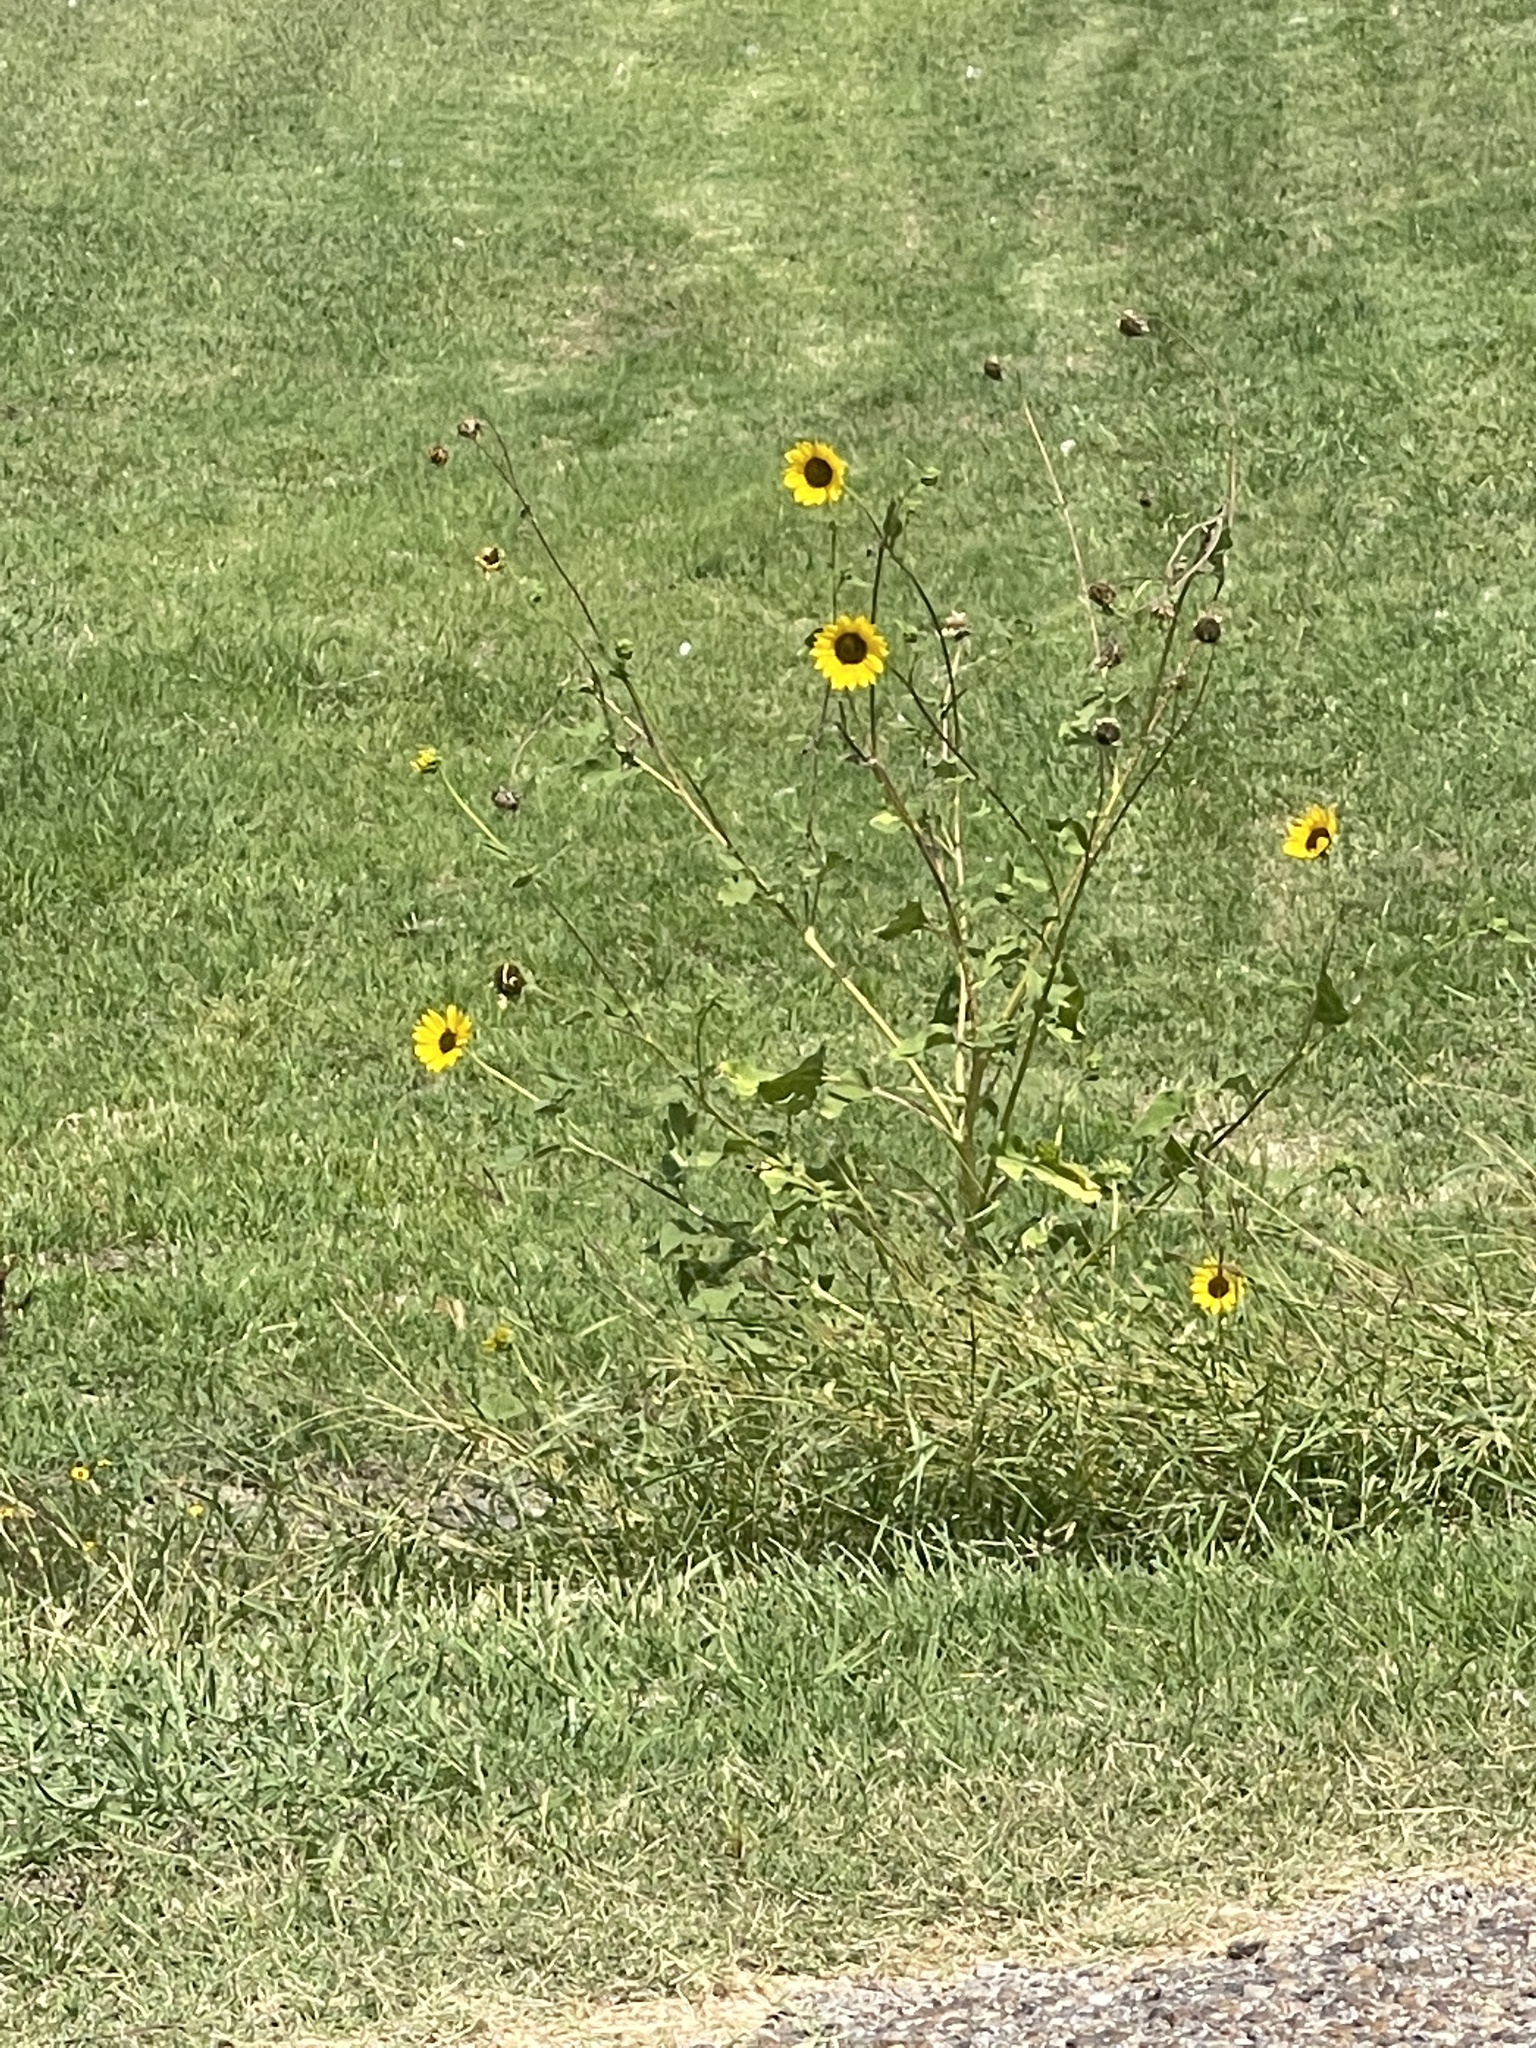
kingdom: Plantae
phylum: Tracheophyta
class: Magnoliopsida
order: Asterales
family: Asteraceae
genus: Helianthus
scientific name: Helianthus annuus
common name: Sunflower
